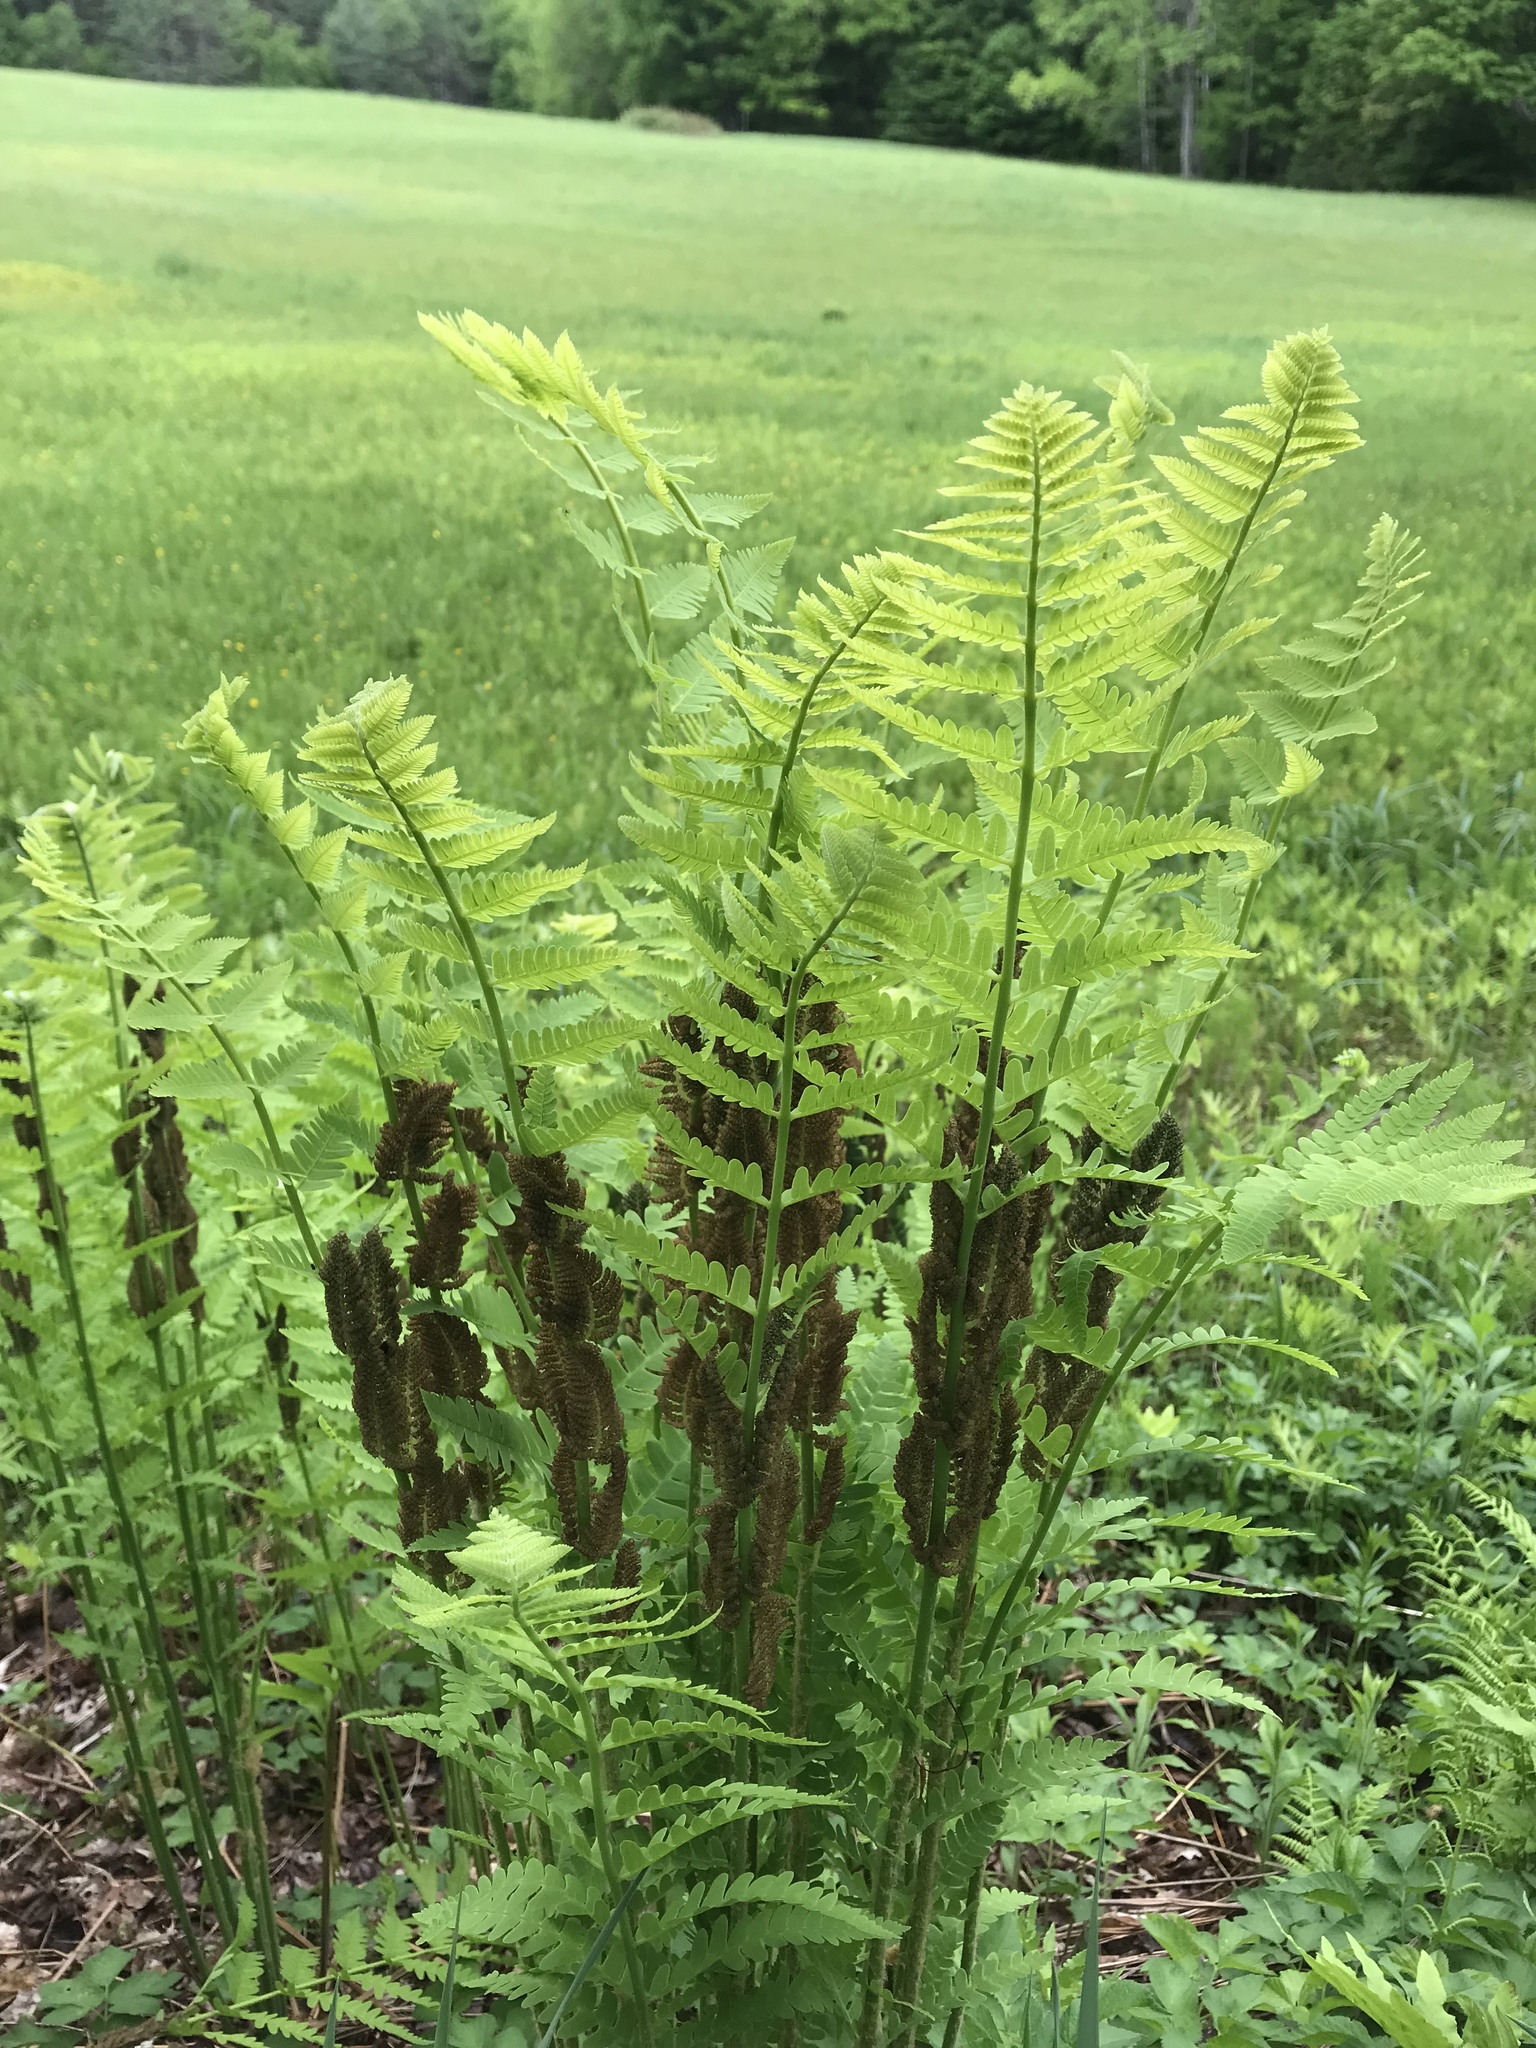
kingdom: Plantae
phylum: Tracheophyta
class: Polypodiopsida
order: Osmundales
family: Osmundaceae
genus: Claytosmunda
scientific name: Claytosmunda claytoniana
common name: Clayton's fern
